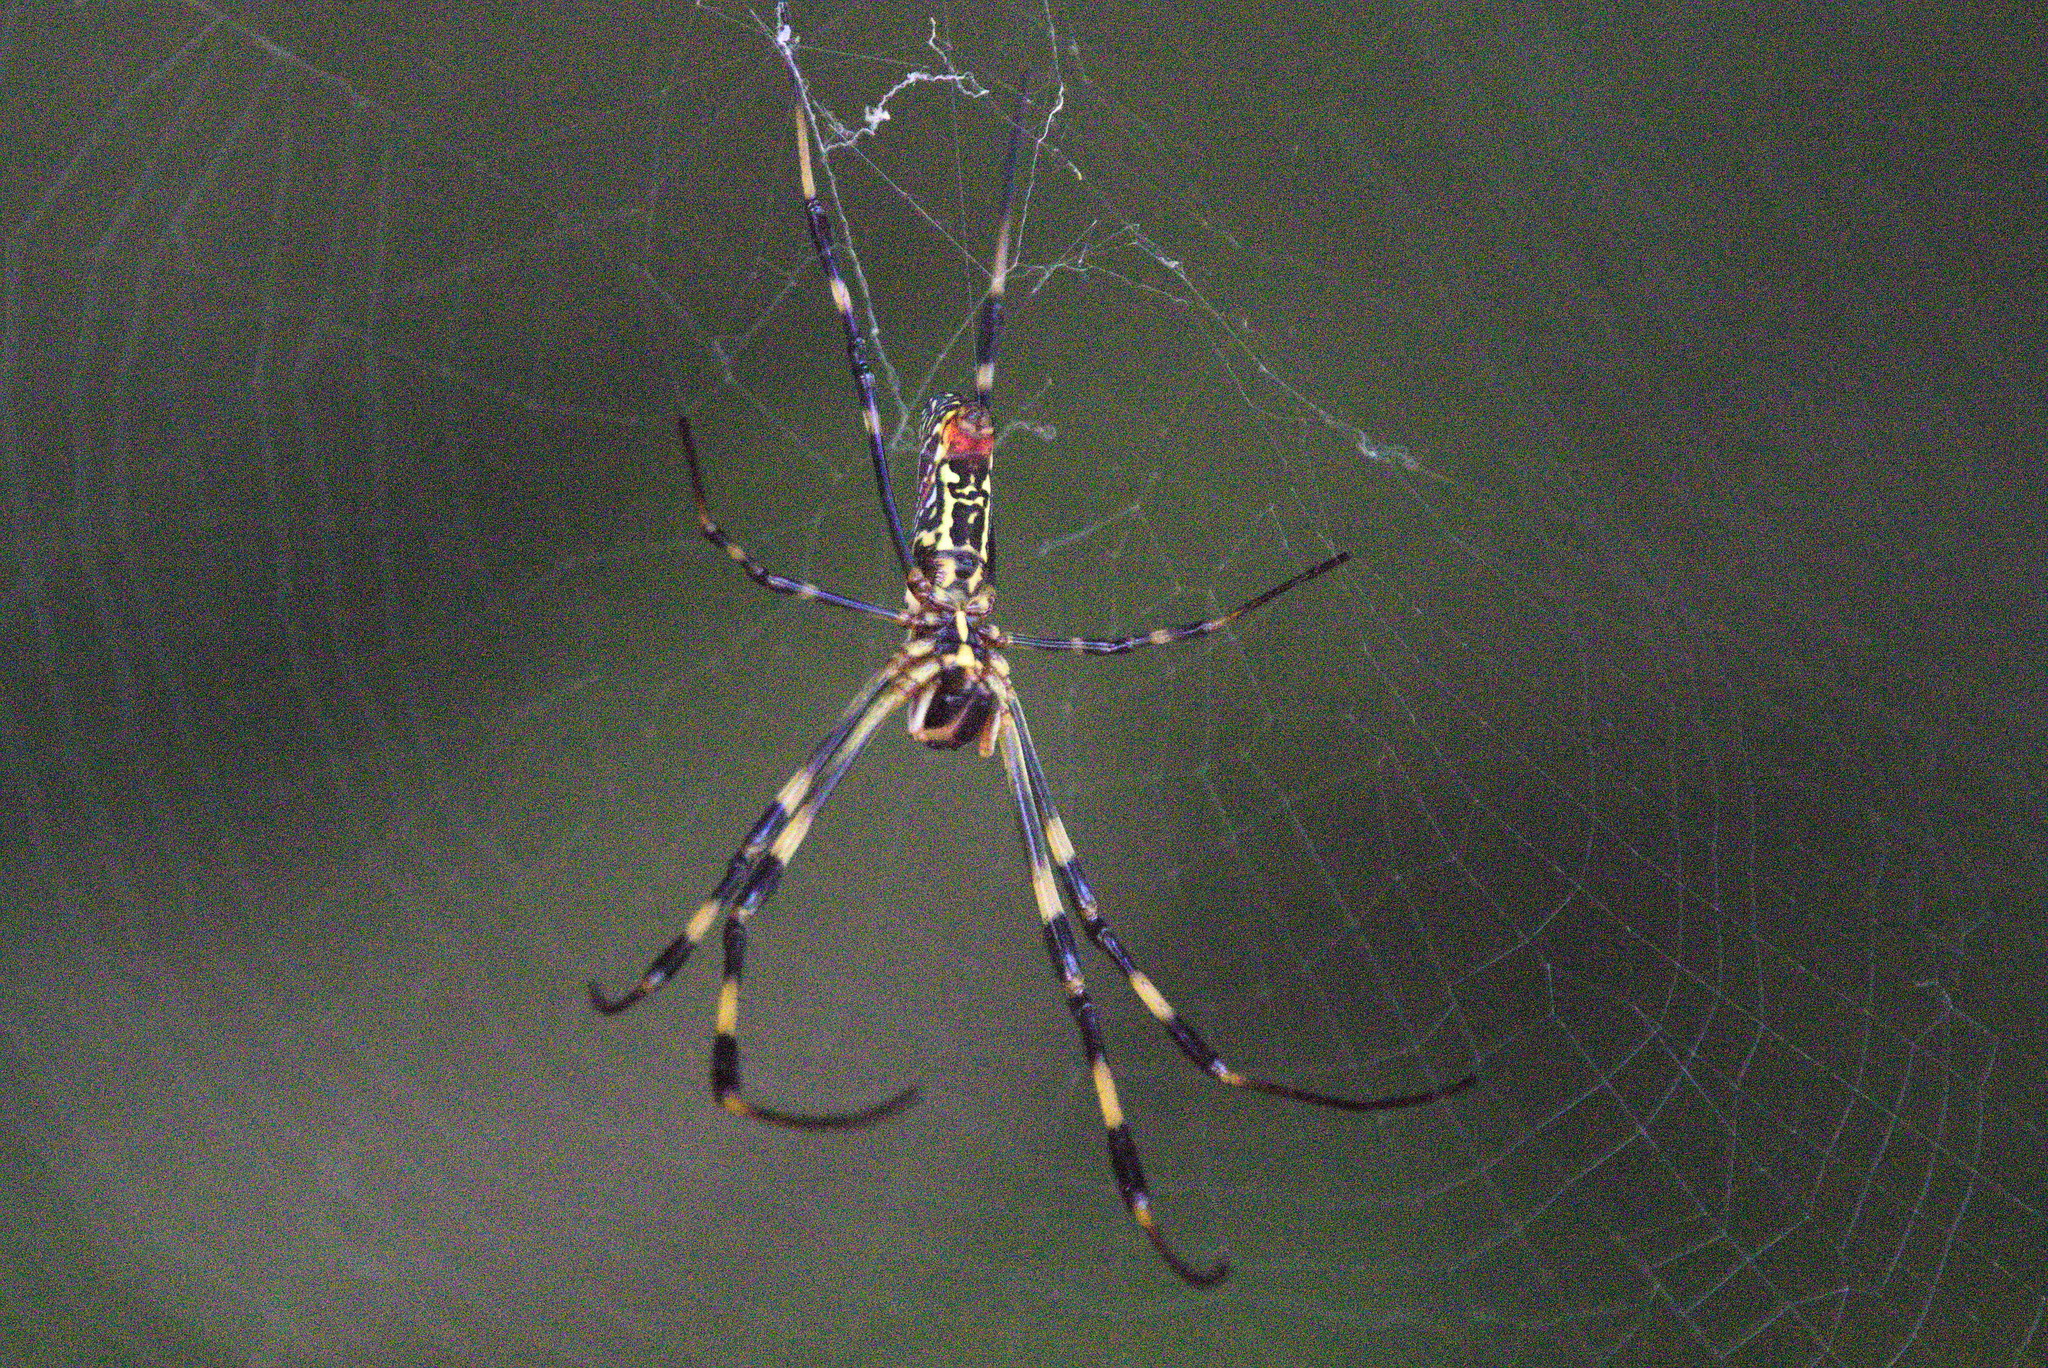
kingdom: Animalia
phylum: Arthropoda
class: Arachnida
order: Araneae
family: Araneidae
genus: Trichonephila
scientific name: Trichonephila clavata
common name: Jorō spider
